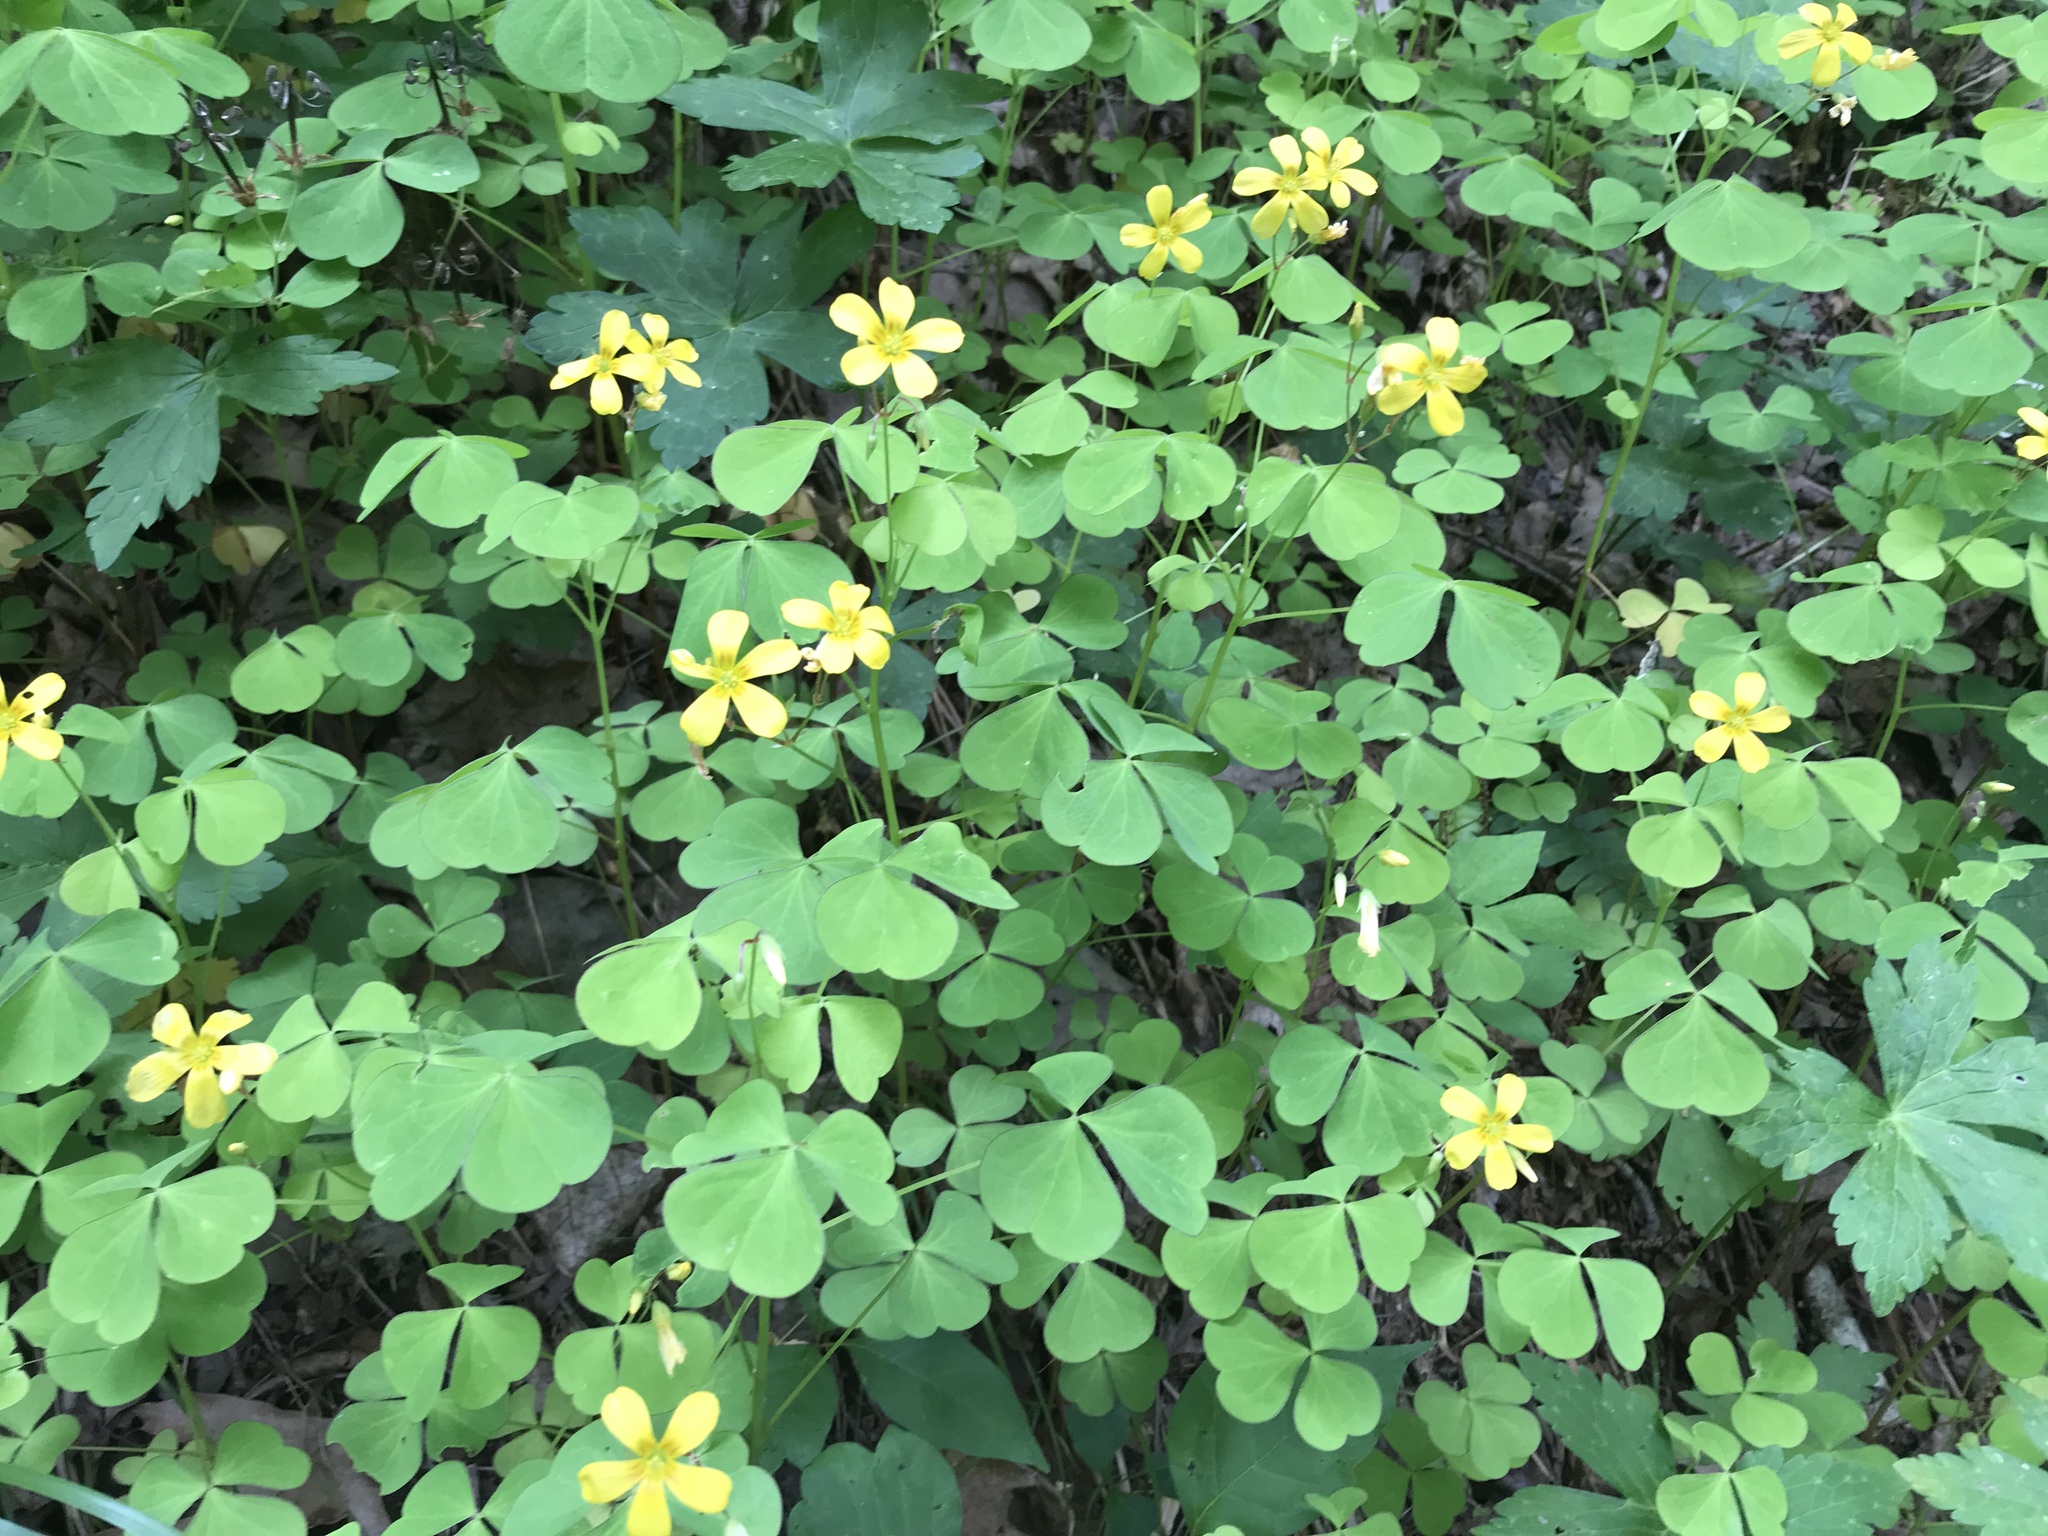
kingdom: Plantae
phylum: Tracheophyta
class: Magnoliopsida
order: Oxalidales
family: Oxalidaceae
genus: Oxalis
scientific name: Oxalis grandis
